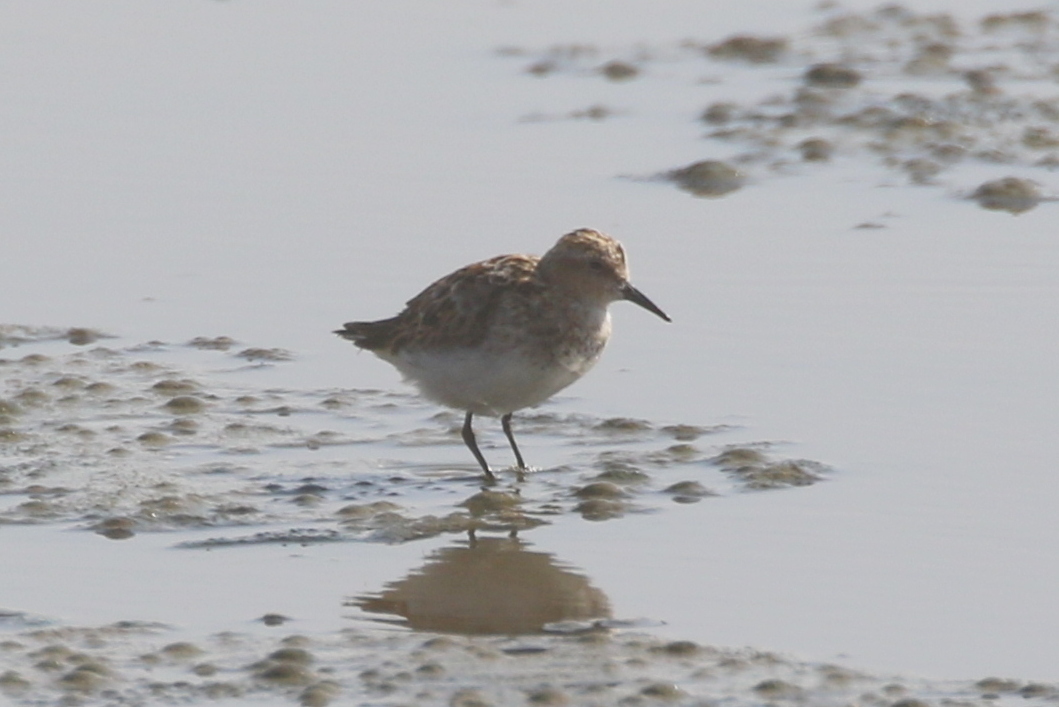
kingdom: Animalia
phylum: Chordata
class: Aves
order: Charadriiformes
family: Scolopacidae
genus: Calidris
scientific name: Calidris minuta
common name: Little stint
